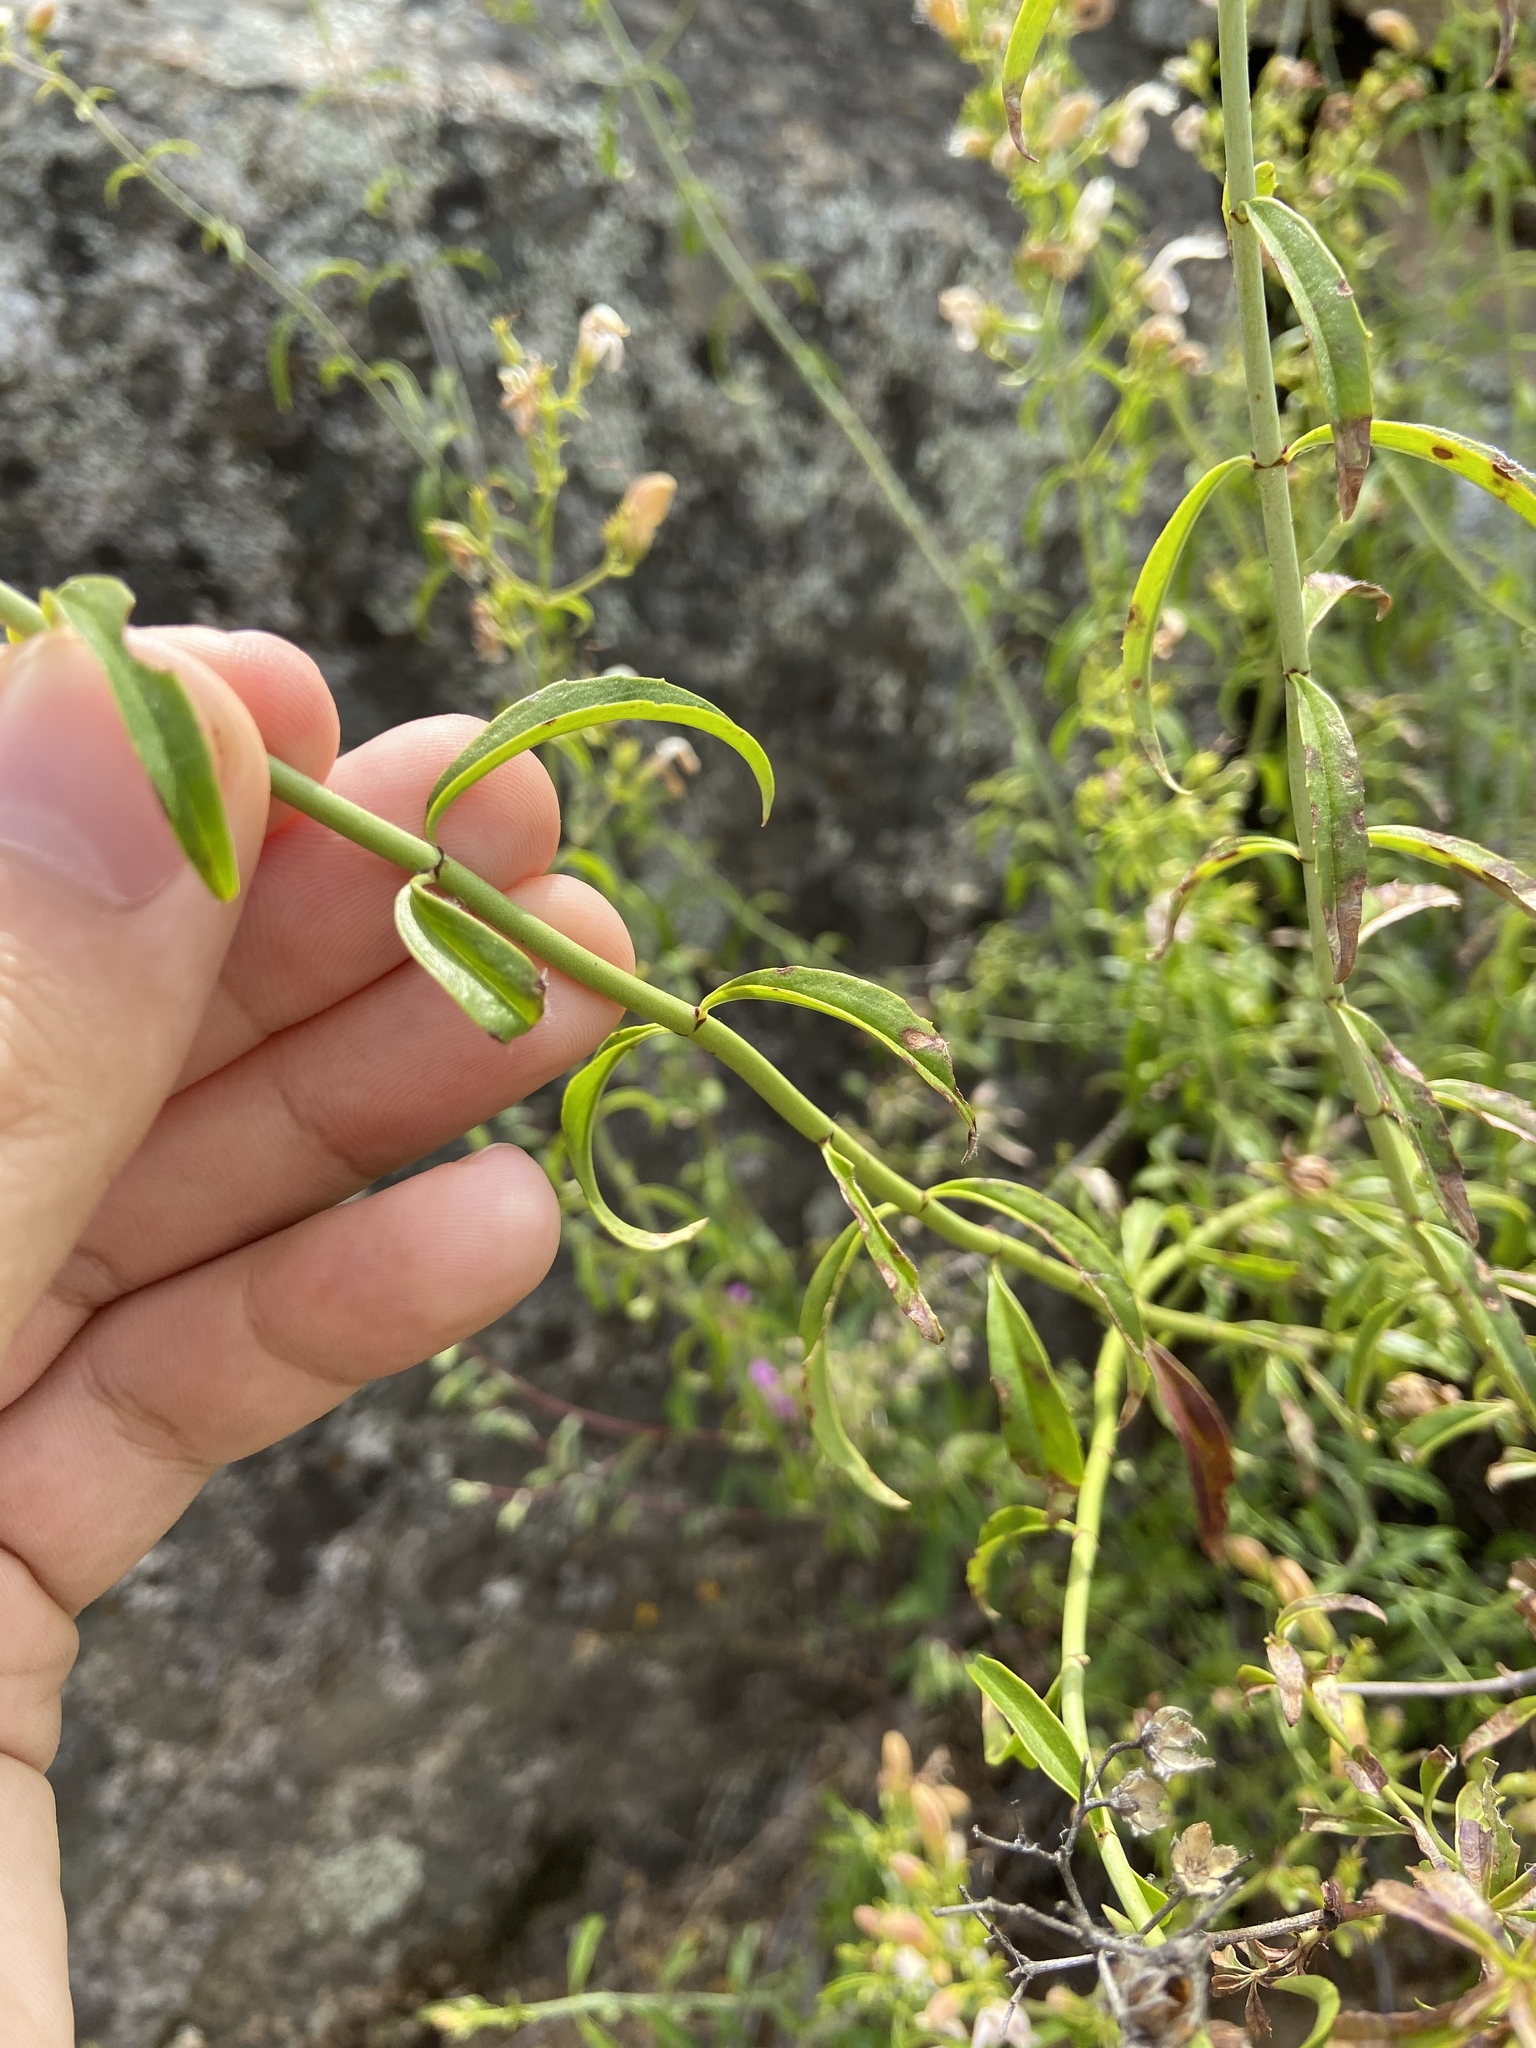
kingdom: Plantae
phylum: Tracheophyta
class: Magnoliopsida
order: Lamiales
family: Plantaginaceae
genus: Keckiella
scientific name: Keckiella breviflora
